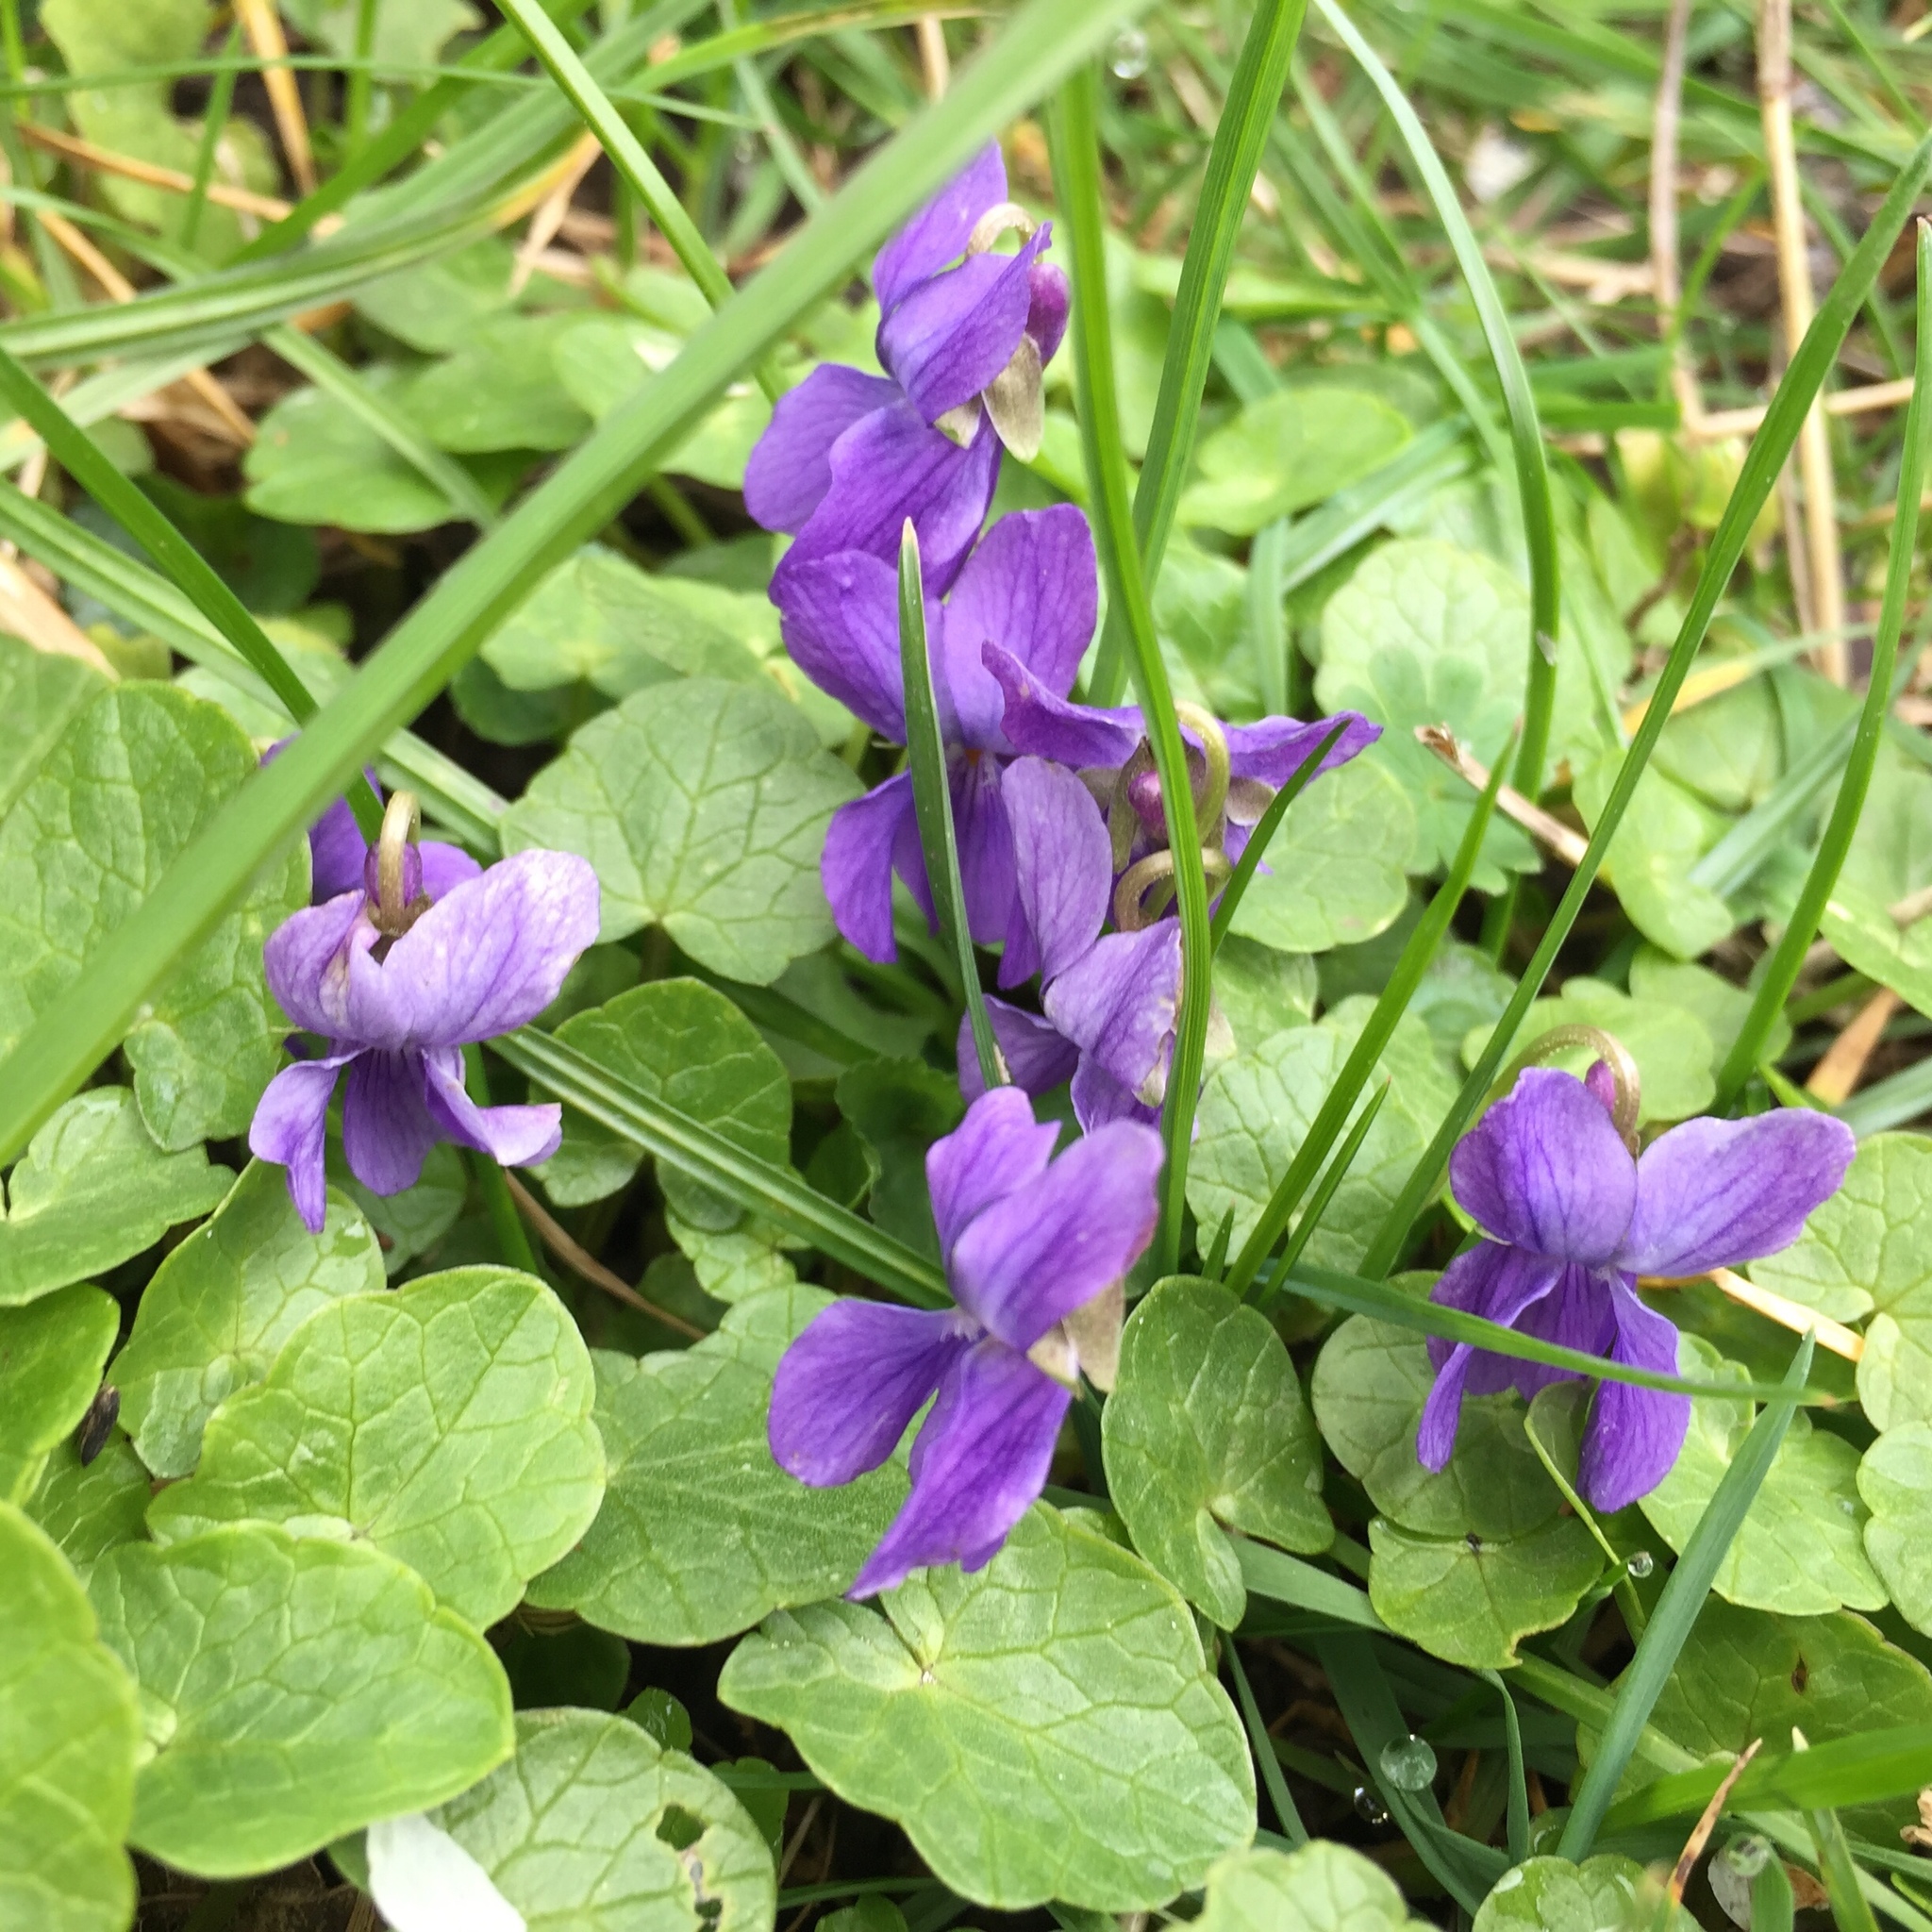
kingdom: Plantae
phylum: Tracheophyta
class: Magnoliopsida
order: Malpighiales
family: Violaceae
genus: Viola
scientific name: Viola odorata
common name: Sweet violet
